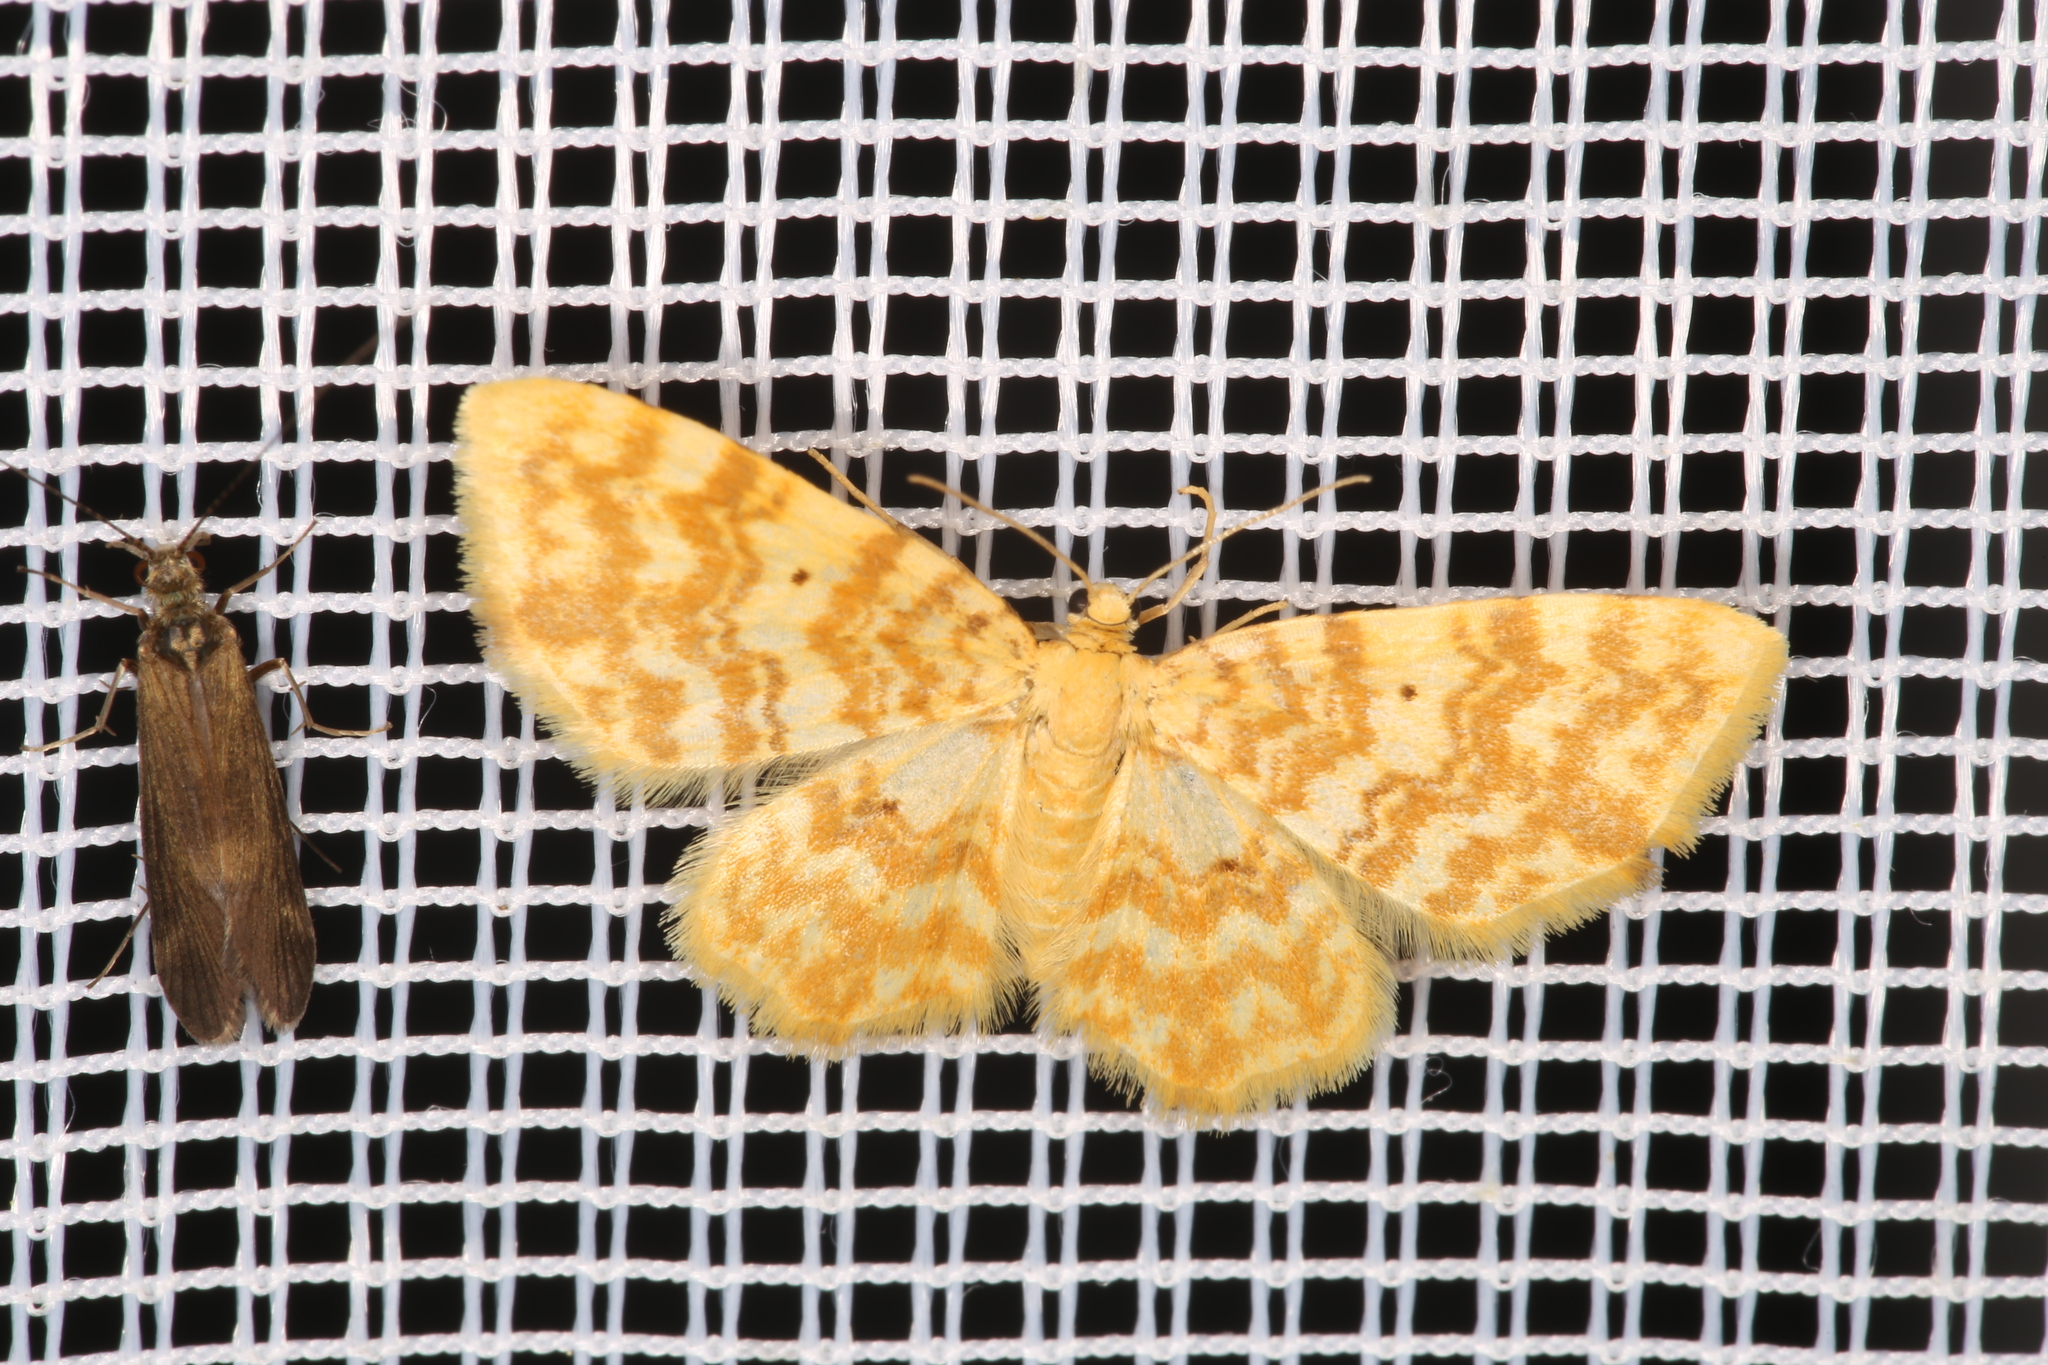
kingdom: Animalia
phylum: Arthropoda
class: Insecta
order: Lepidoptera
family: Geometridae
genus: Hydrelia
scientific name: Hydrelia flammeolaria
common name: Small yellow wave
